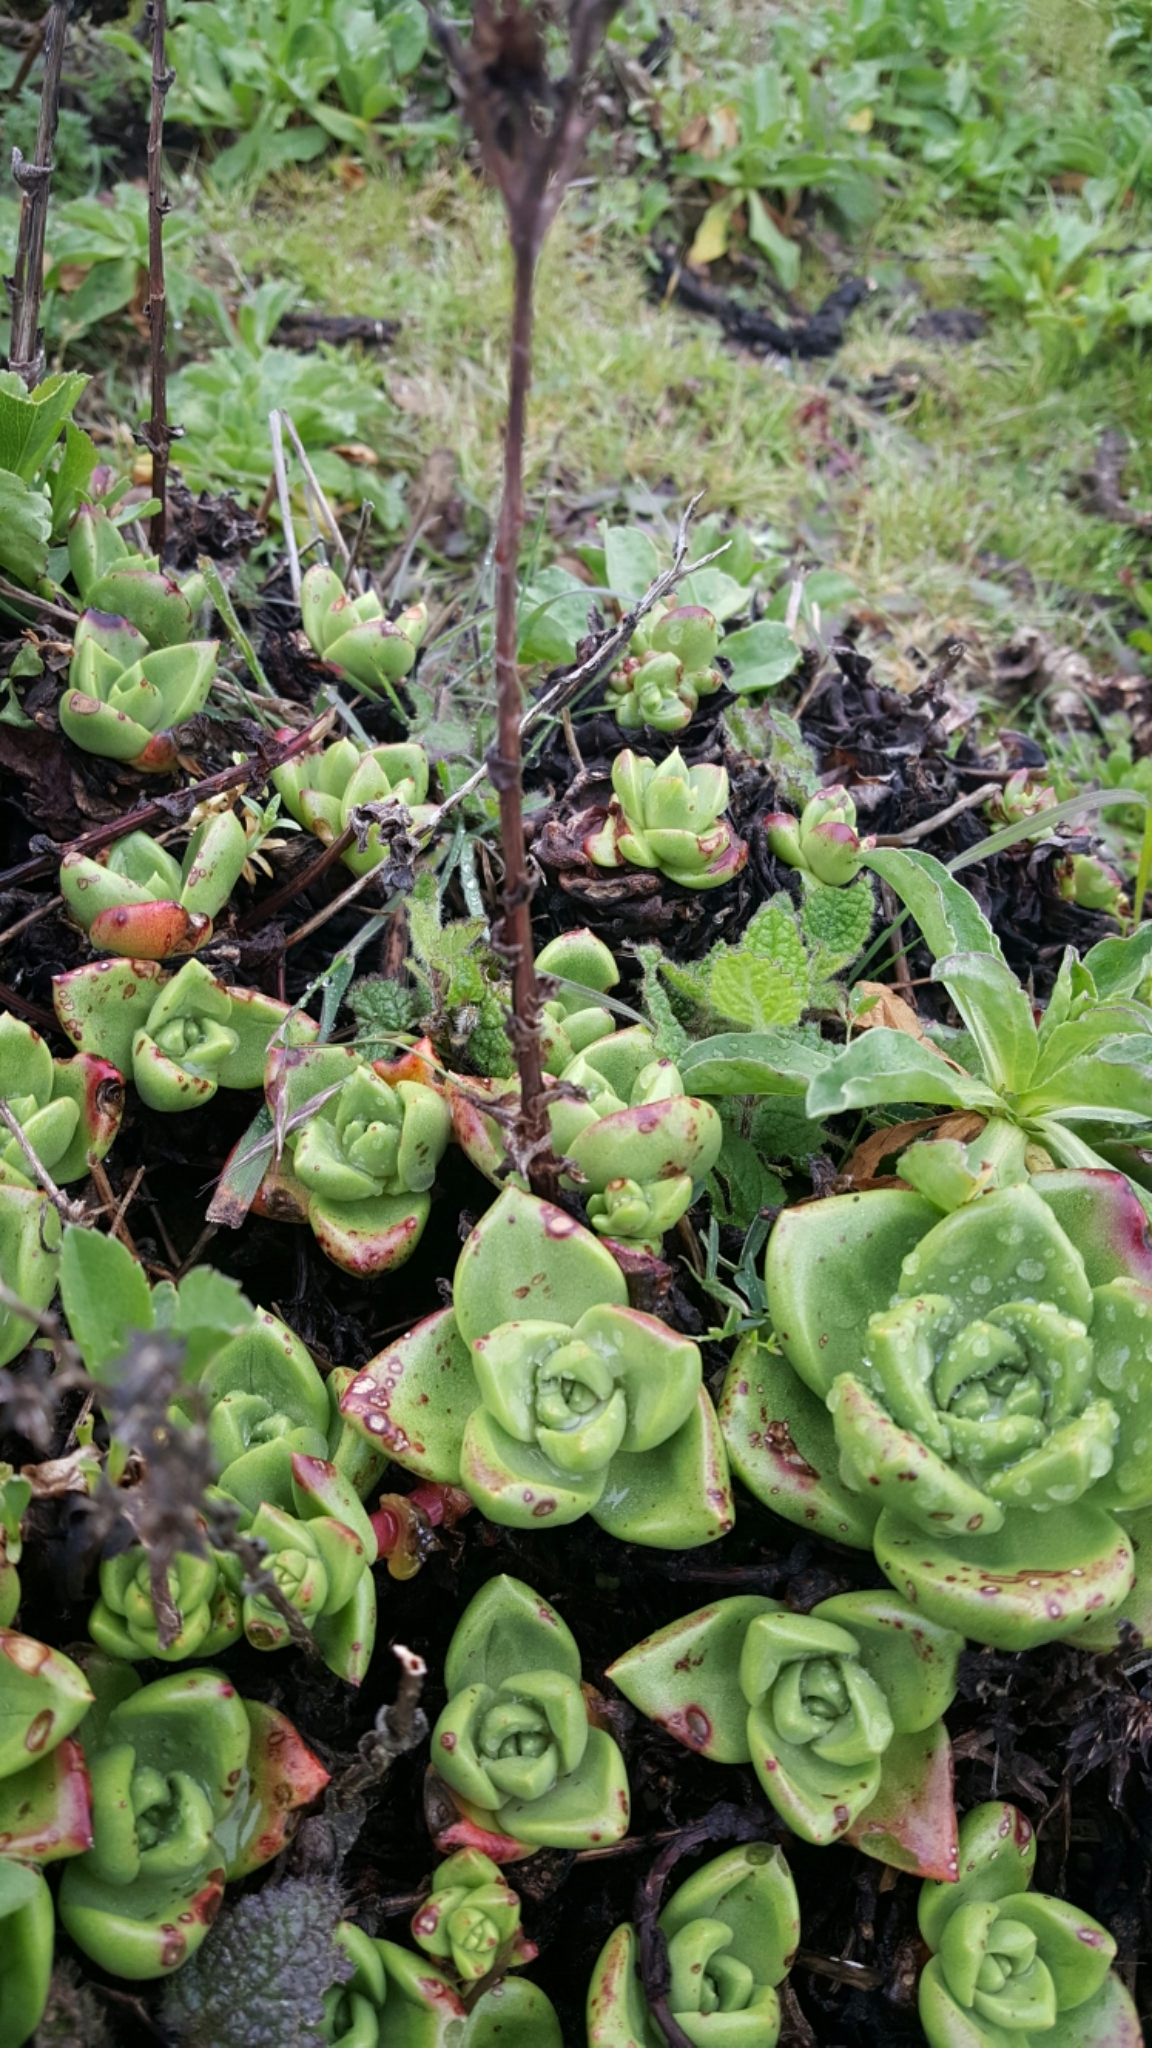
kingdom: Plantae
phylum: Tracheophyta
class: Magnoliopsida
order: Saxifragales
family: Crassulaceae
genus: Dudleya
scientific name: Dudleya farinosa
